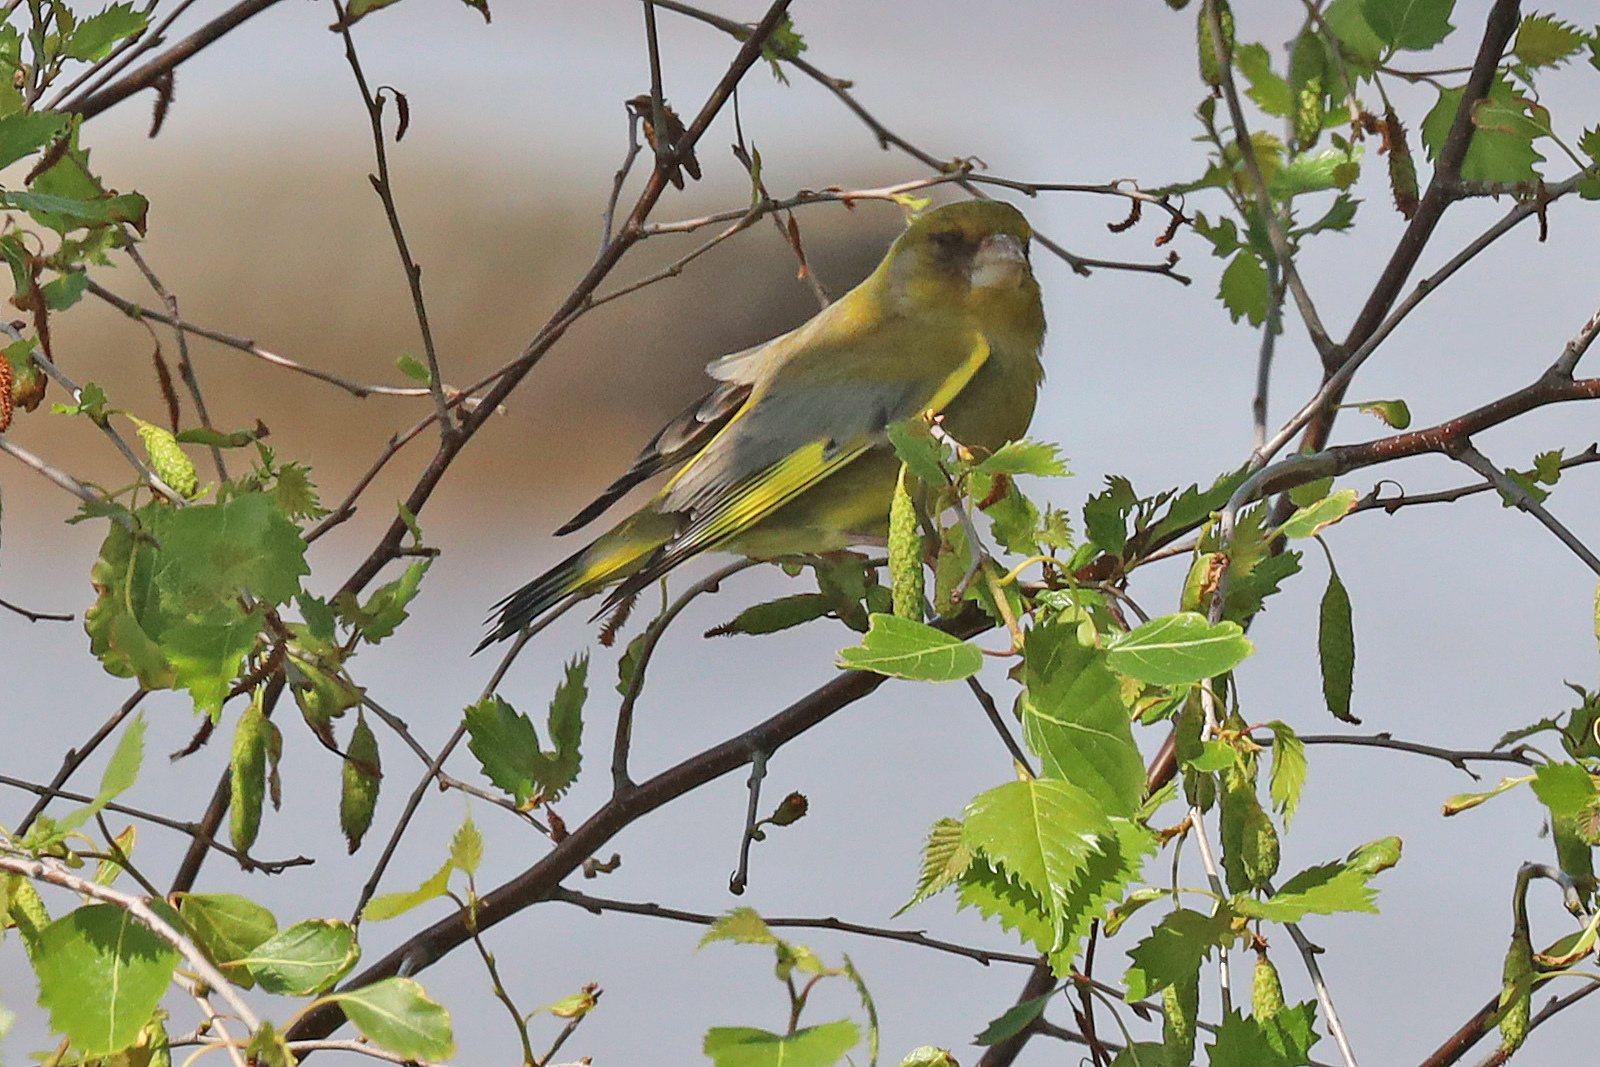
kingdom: Plantae
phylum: Tracheophyta
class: Liliopsida
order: Poales
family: Poaceae
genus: Chloris
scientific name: Chloris chloris
